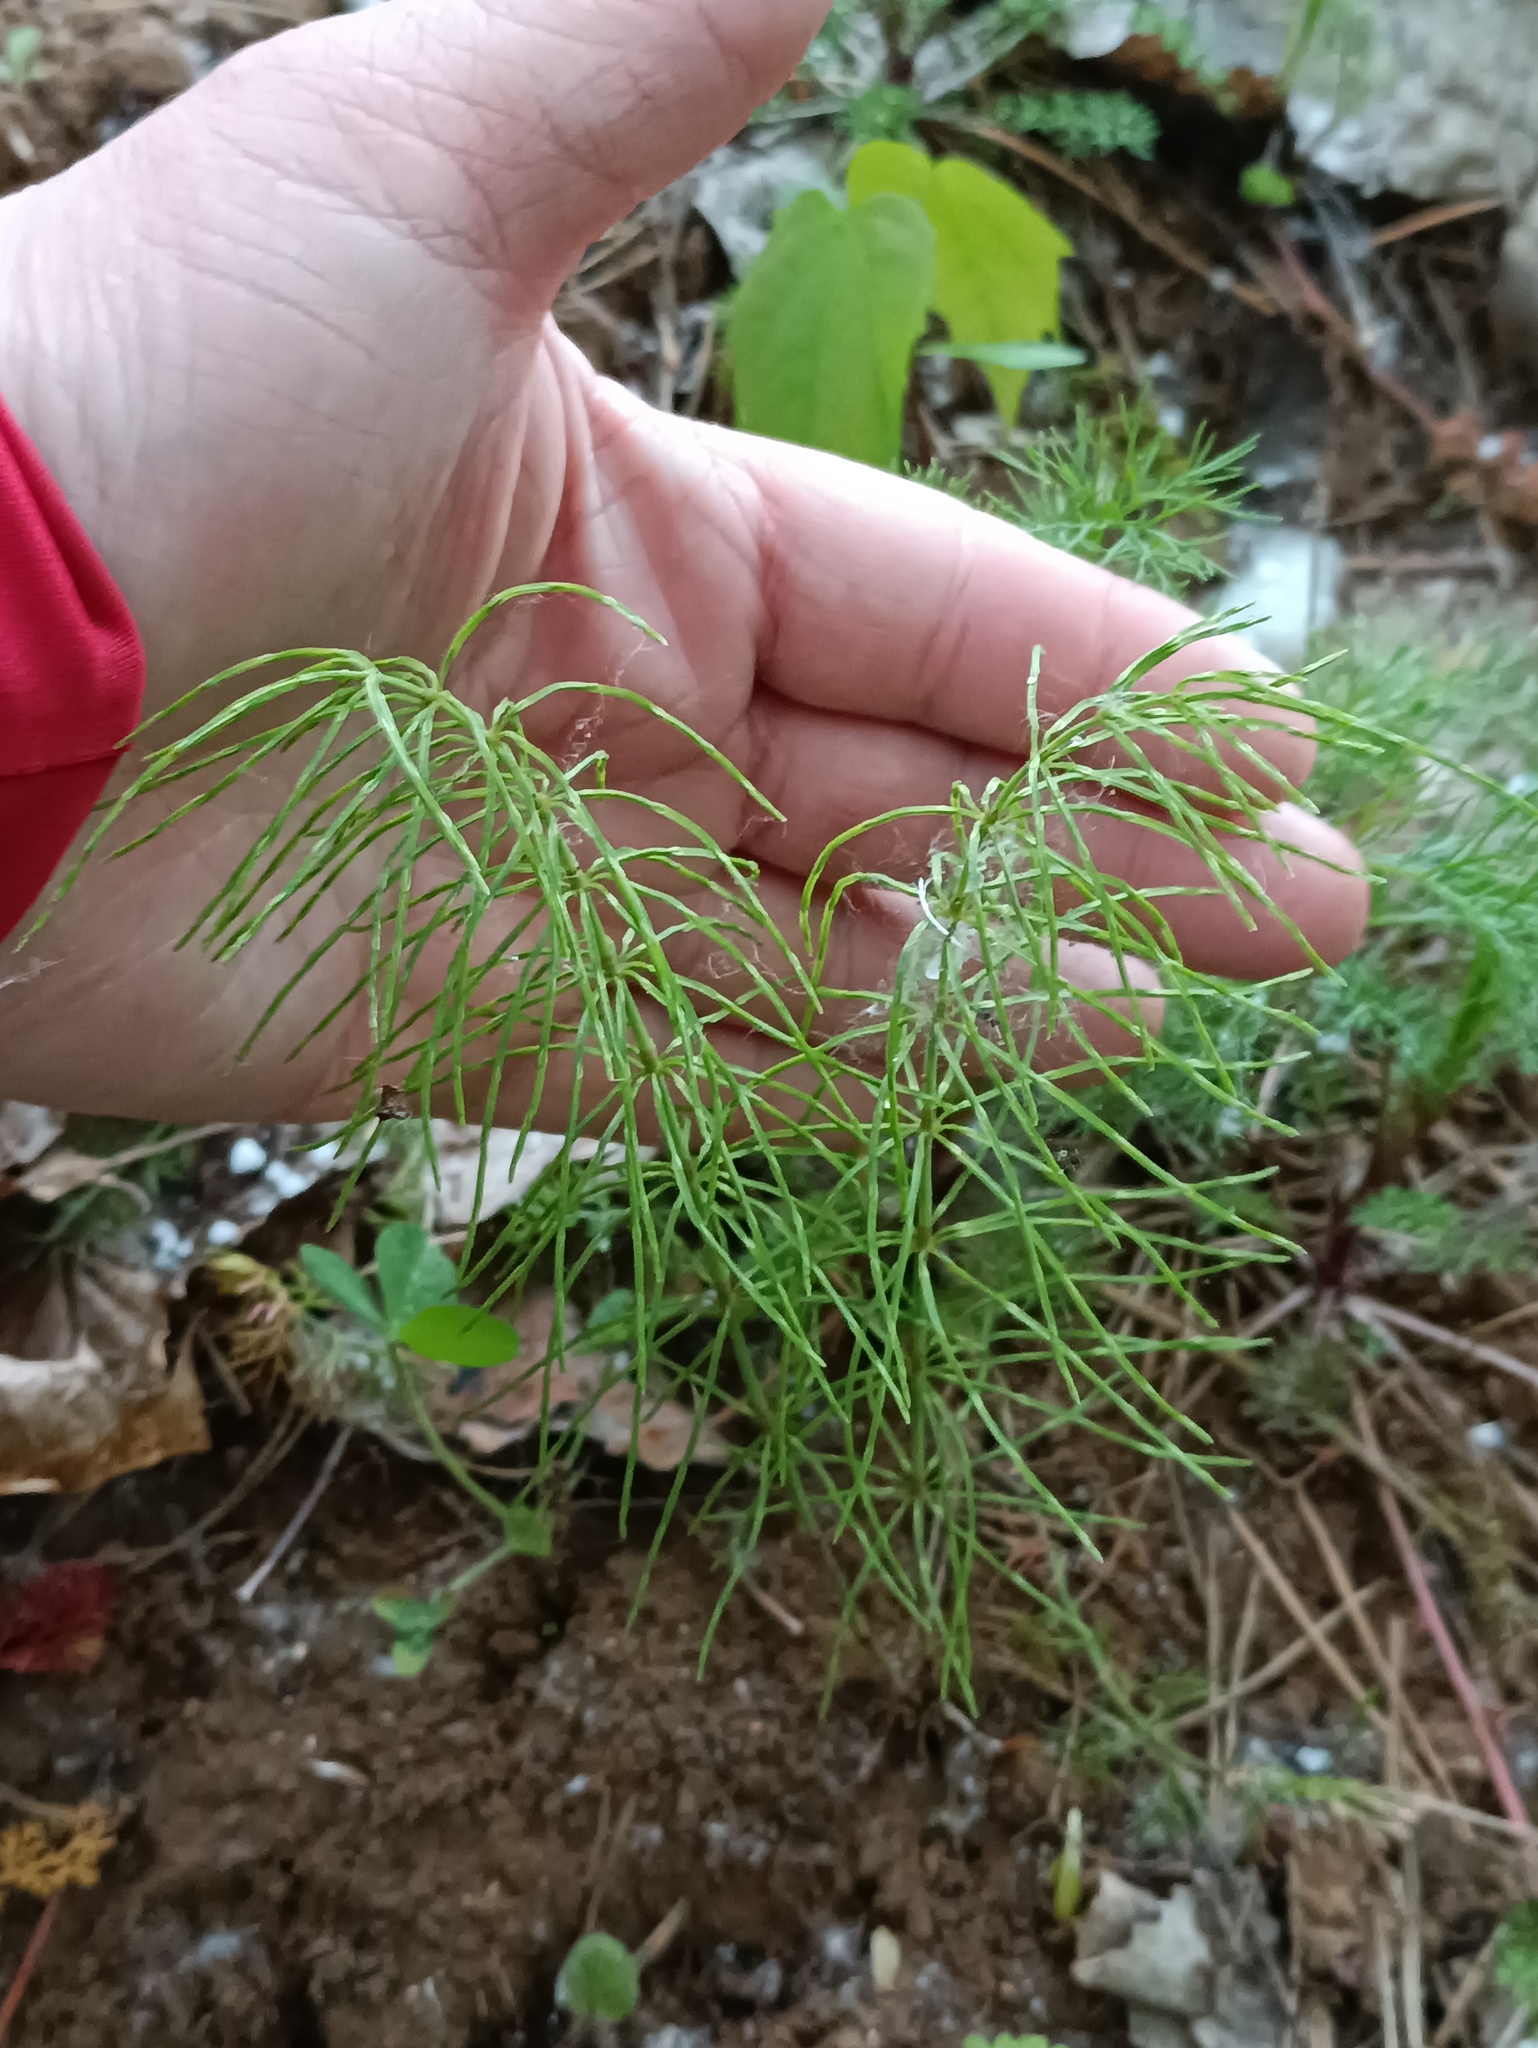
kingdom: Plantae
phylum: Tracheophyta
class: Polypodiopsida
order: Equisetales
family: Equisetaceae
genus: Equisetum
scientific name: Equisetum pratense
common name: Meadow horsetail
